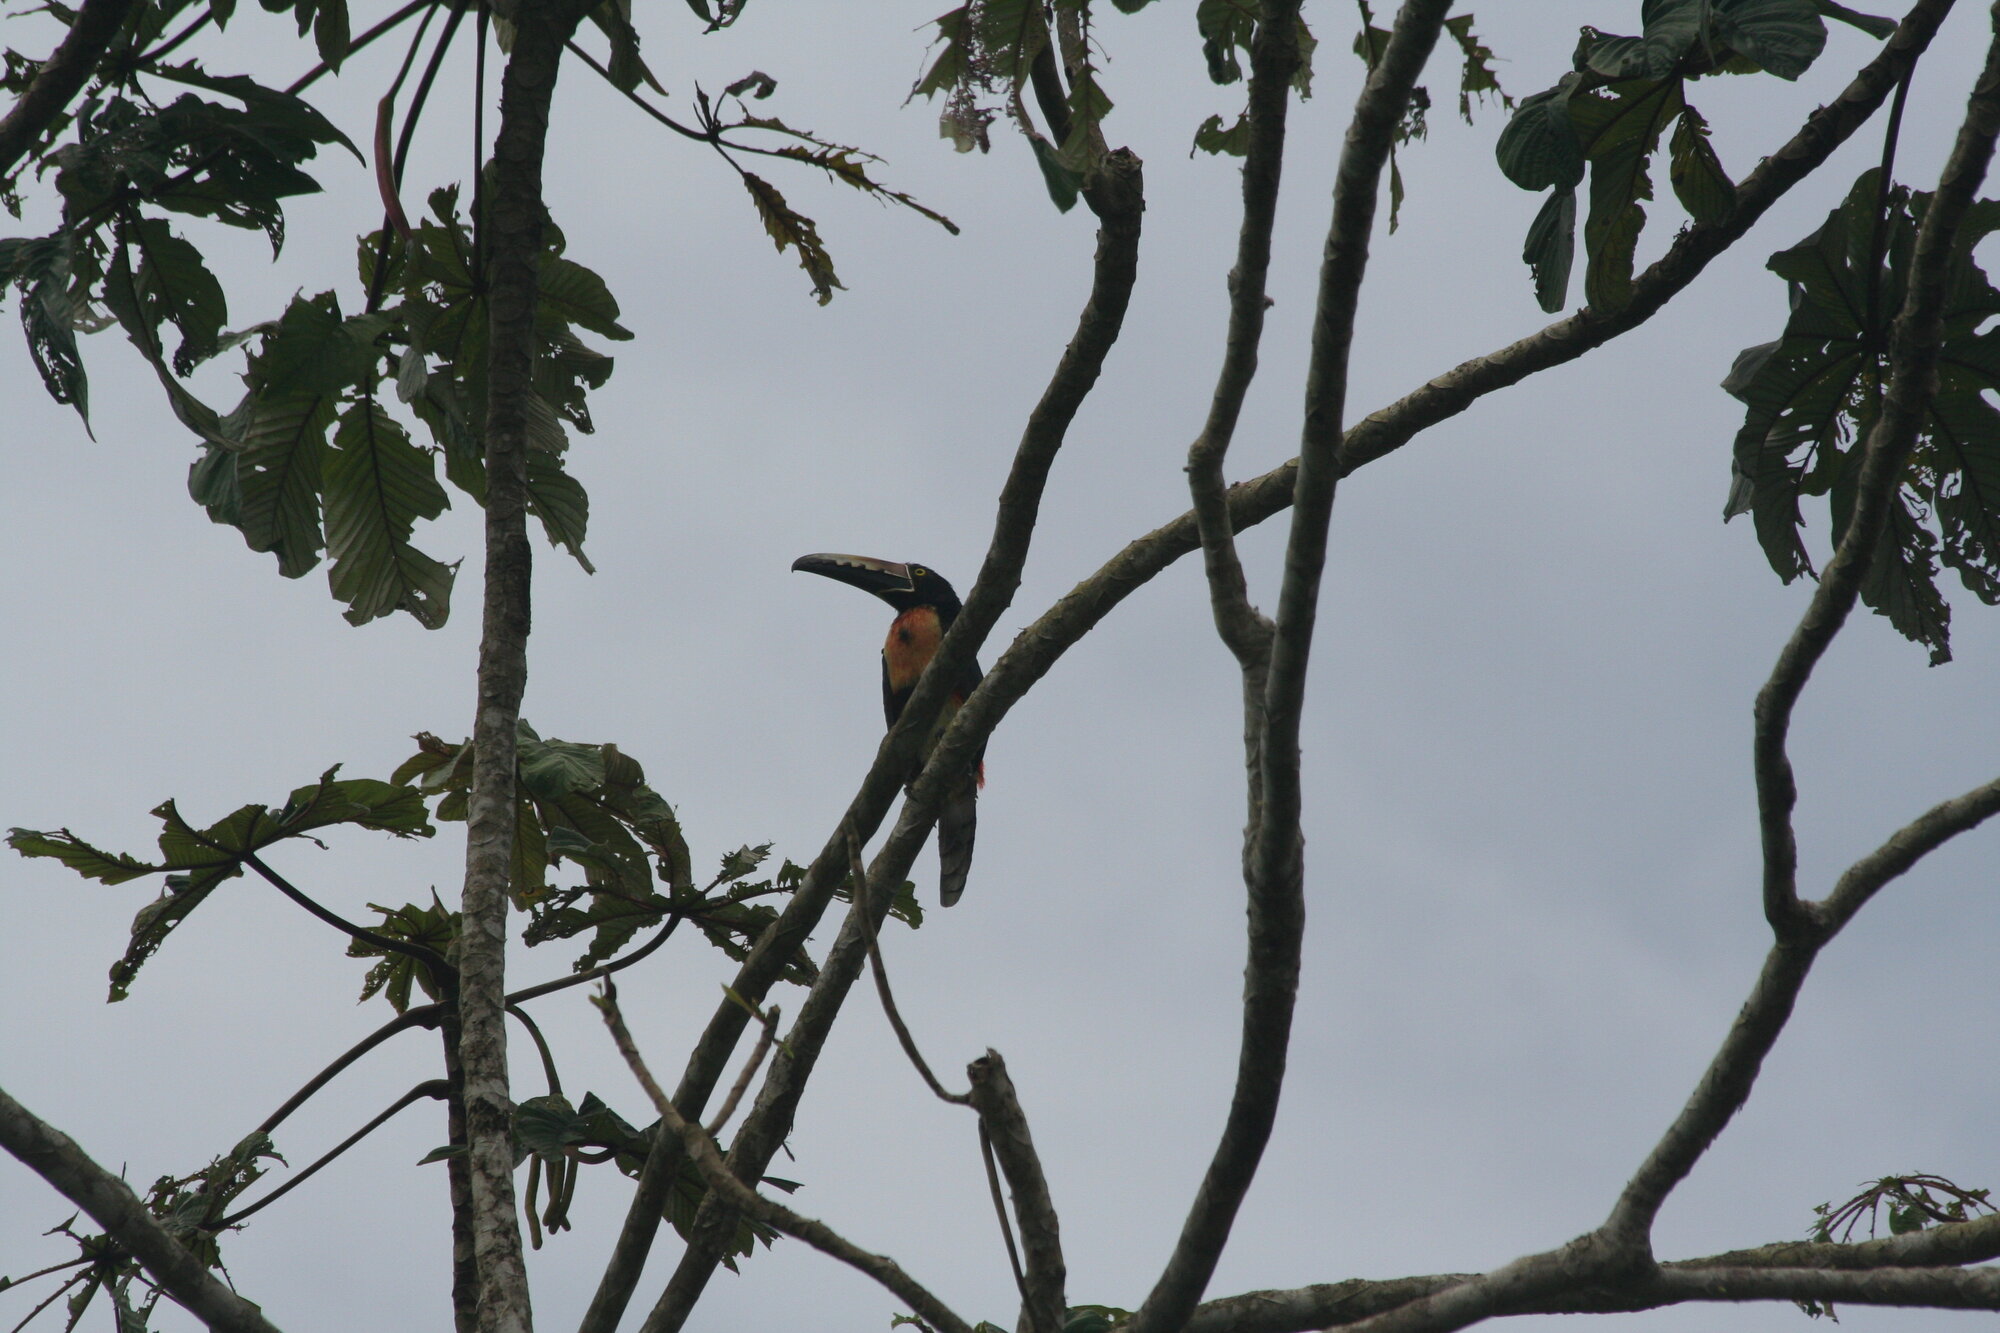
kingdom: Animalia
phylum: Chordata
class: Aves
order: Piciformes
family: Ramphastidae
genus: Pteroglossus
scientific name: Pteroglossus torquatus
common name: Collared aracari
